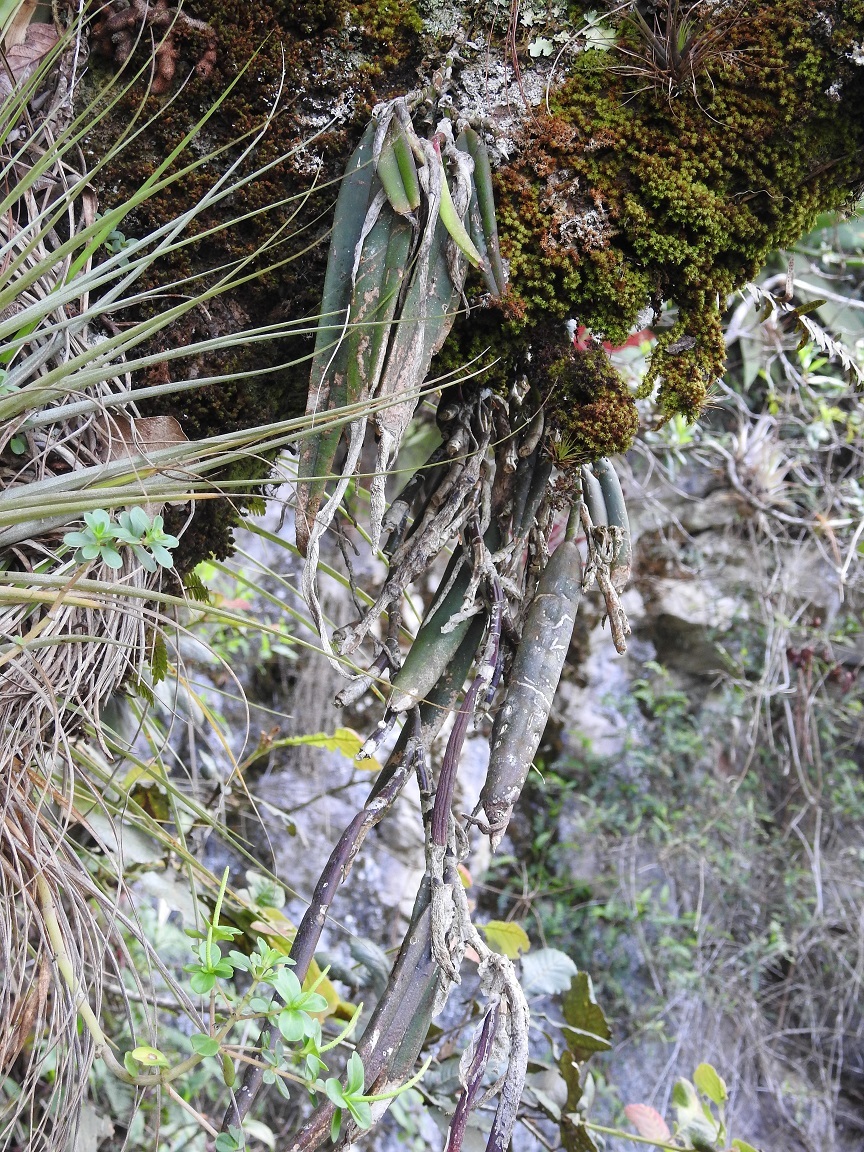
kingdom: Plantae
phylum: Tracheophyta
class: Liliopsida
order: Asparagales
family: Orchidaceae
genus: Epidendrum
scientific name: Epidendrum parkinsonianum
